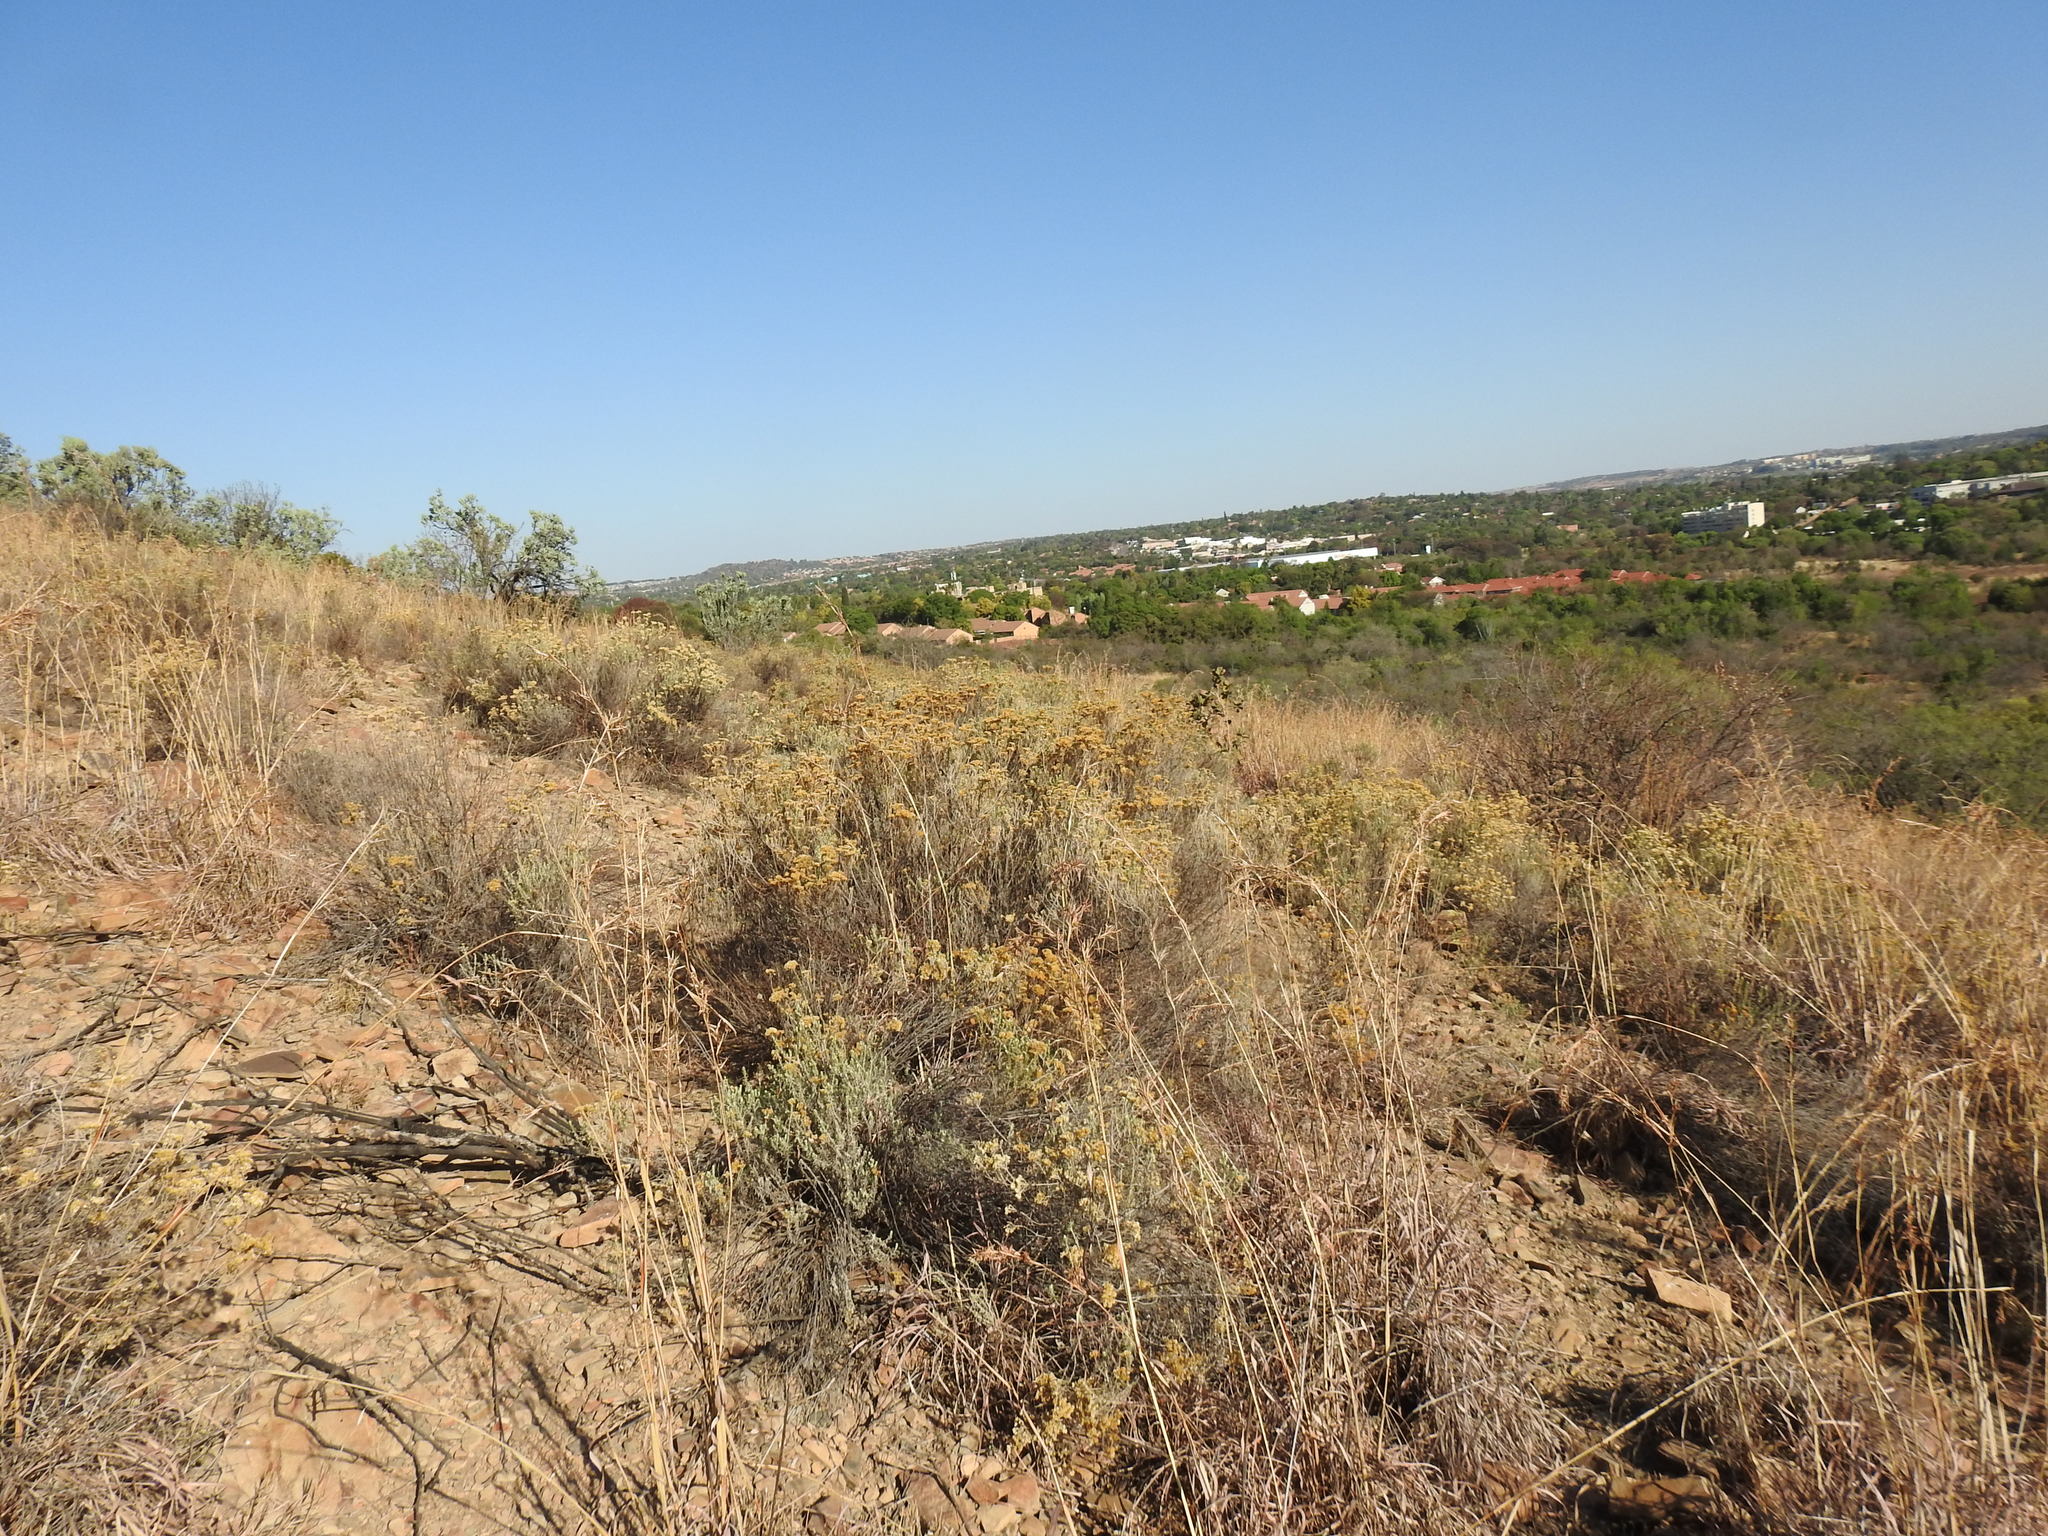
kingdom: Plantae
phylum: Tracheophyta
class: Magnoliopsida
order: Asterales
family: Asteraceae
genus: Helichrysum
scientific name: Helichrysum kraussii
